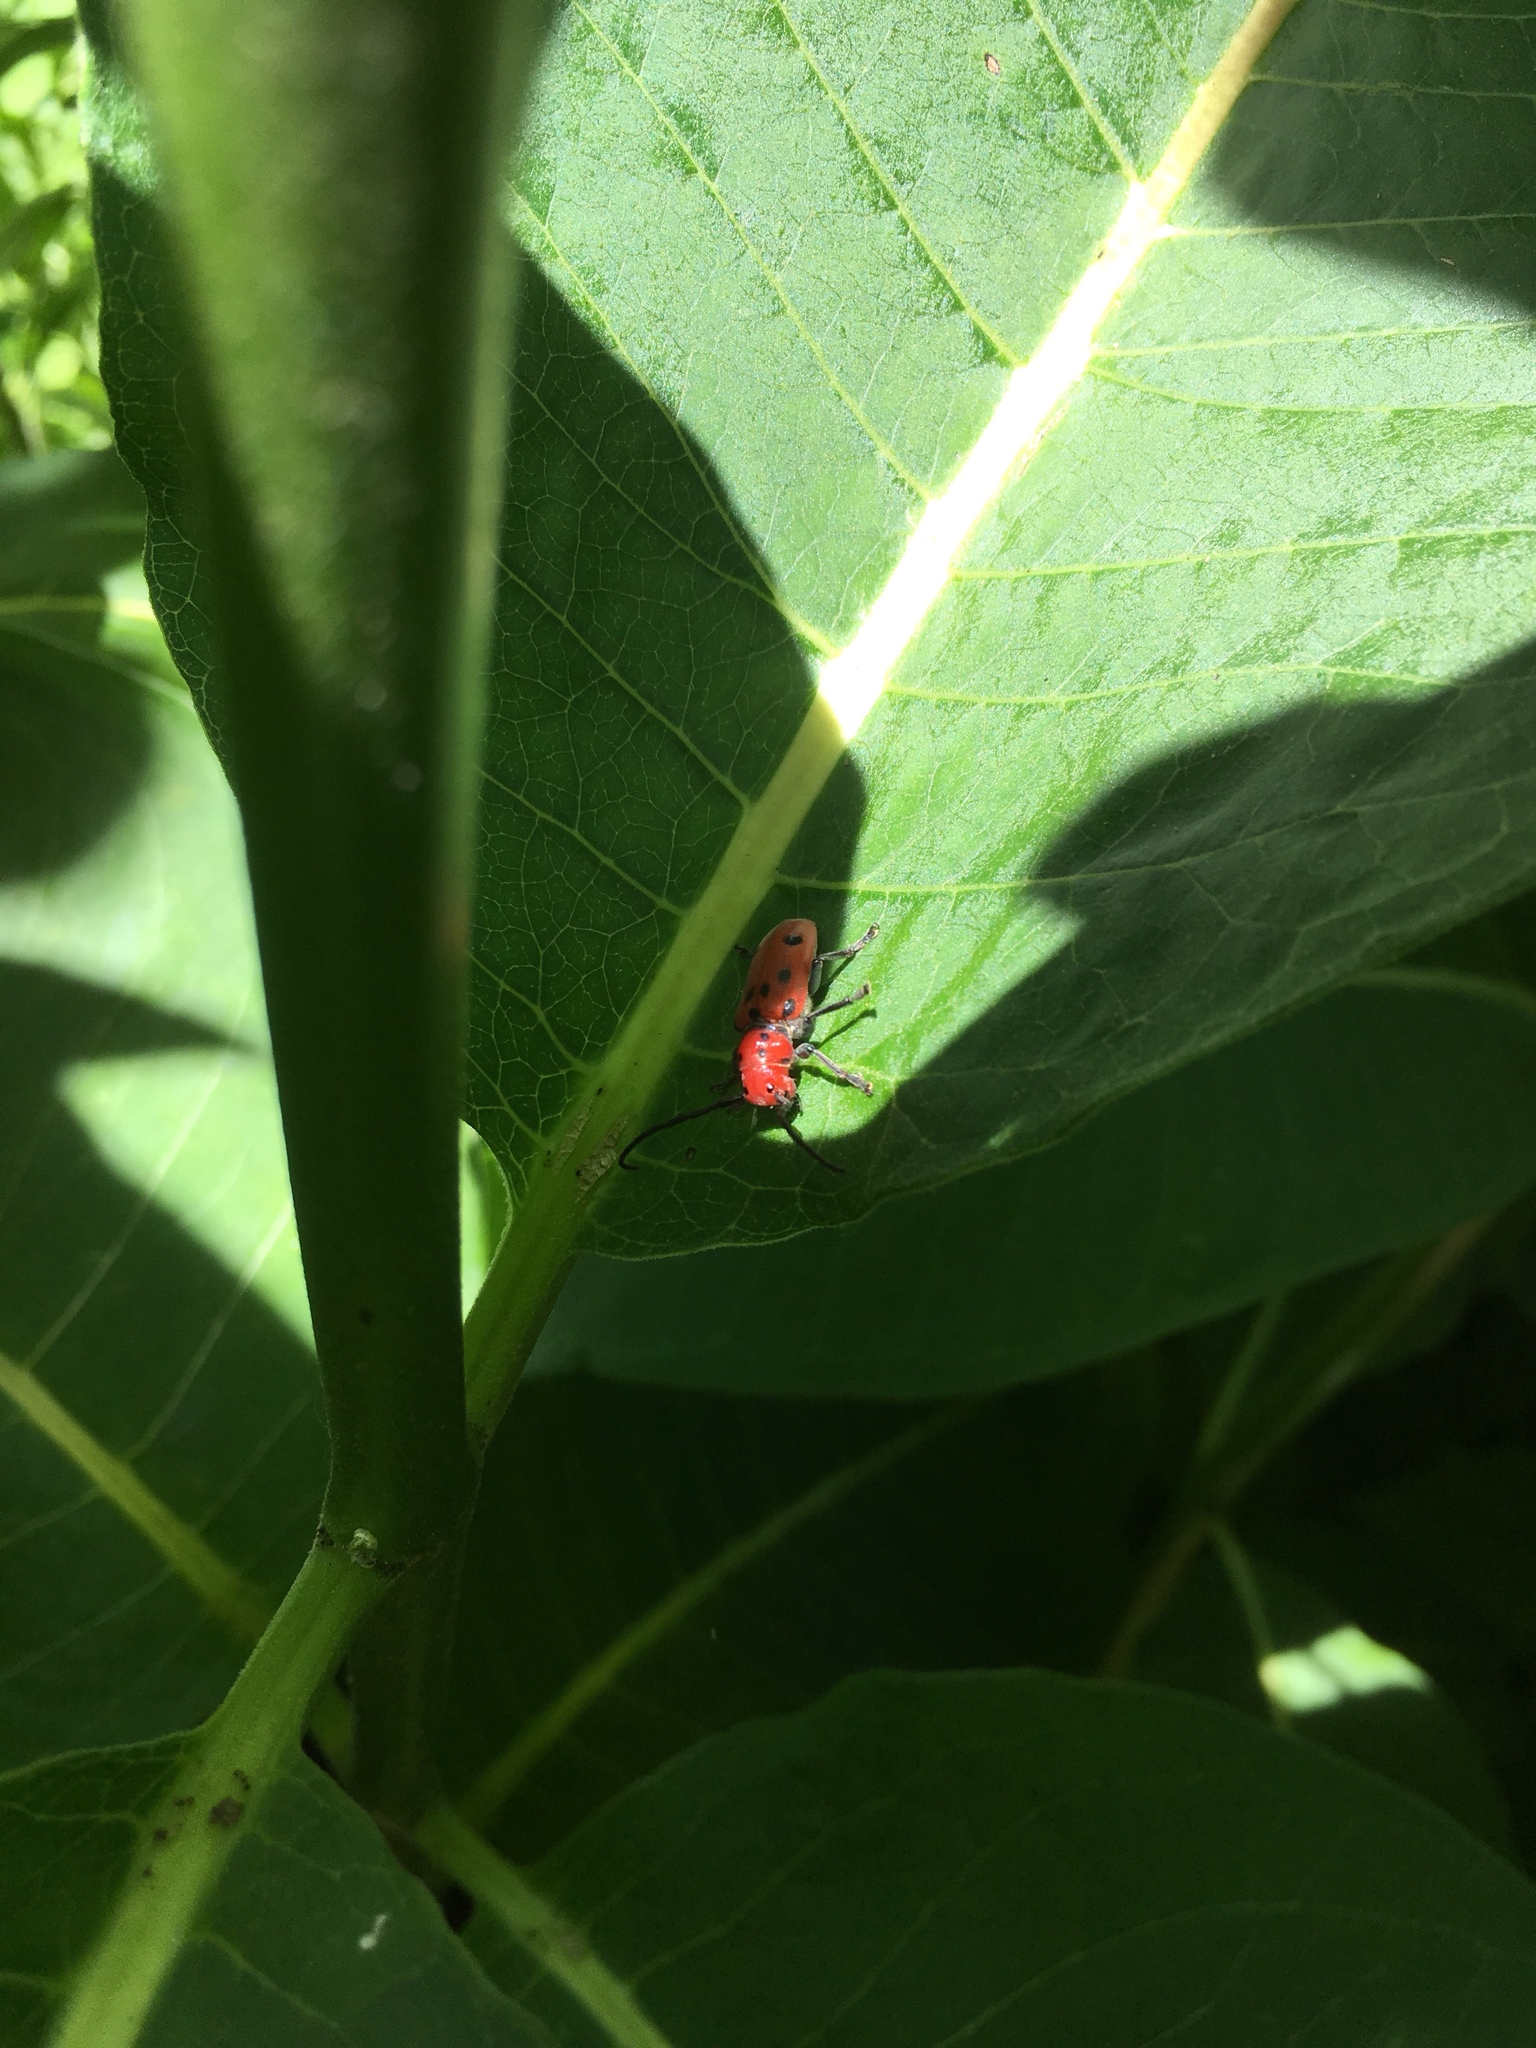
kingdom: Animalia
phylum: Arthropoda
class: Insecta
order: Coleoptera
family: Cerambycidae
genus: Tetraopes
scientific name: Tetraopes tetrophthalmus
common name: Red milkweed beetle
